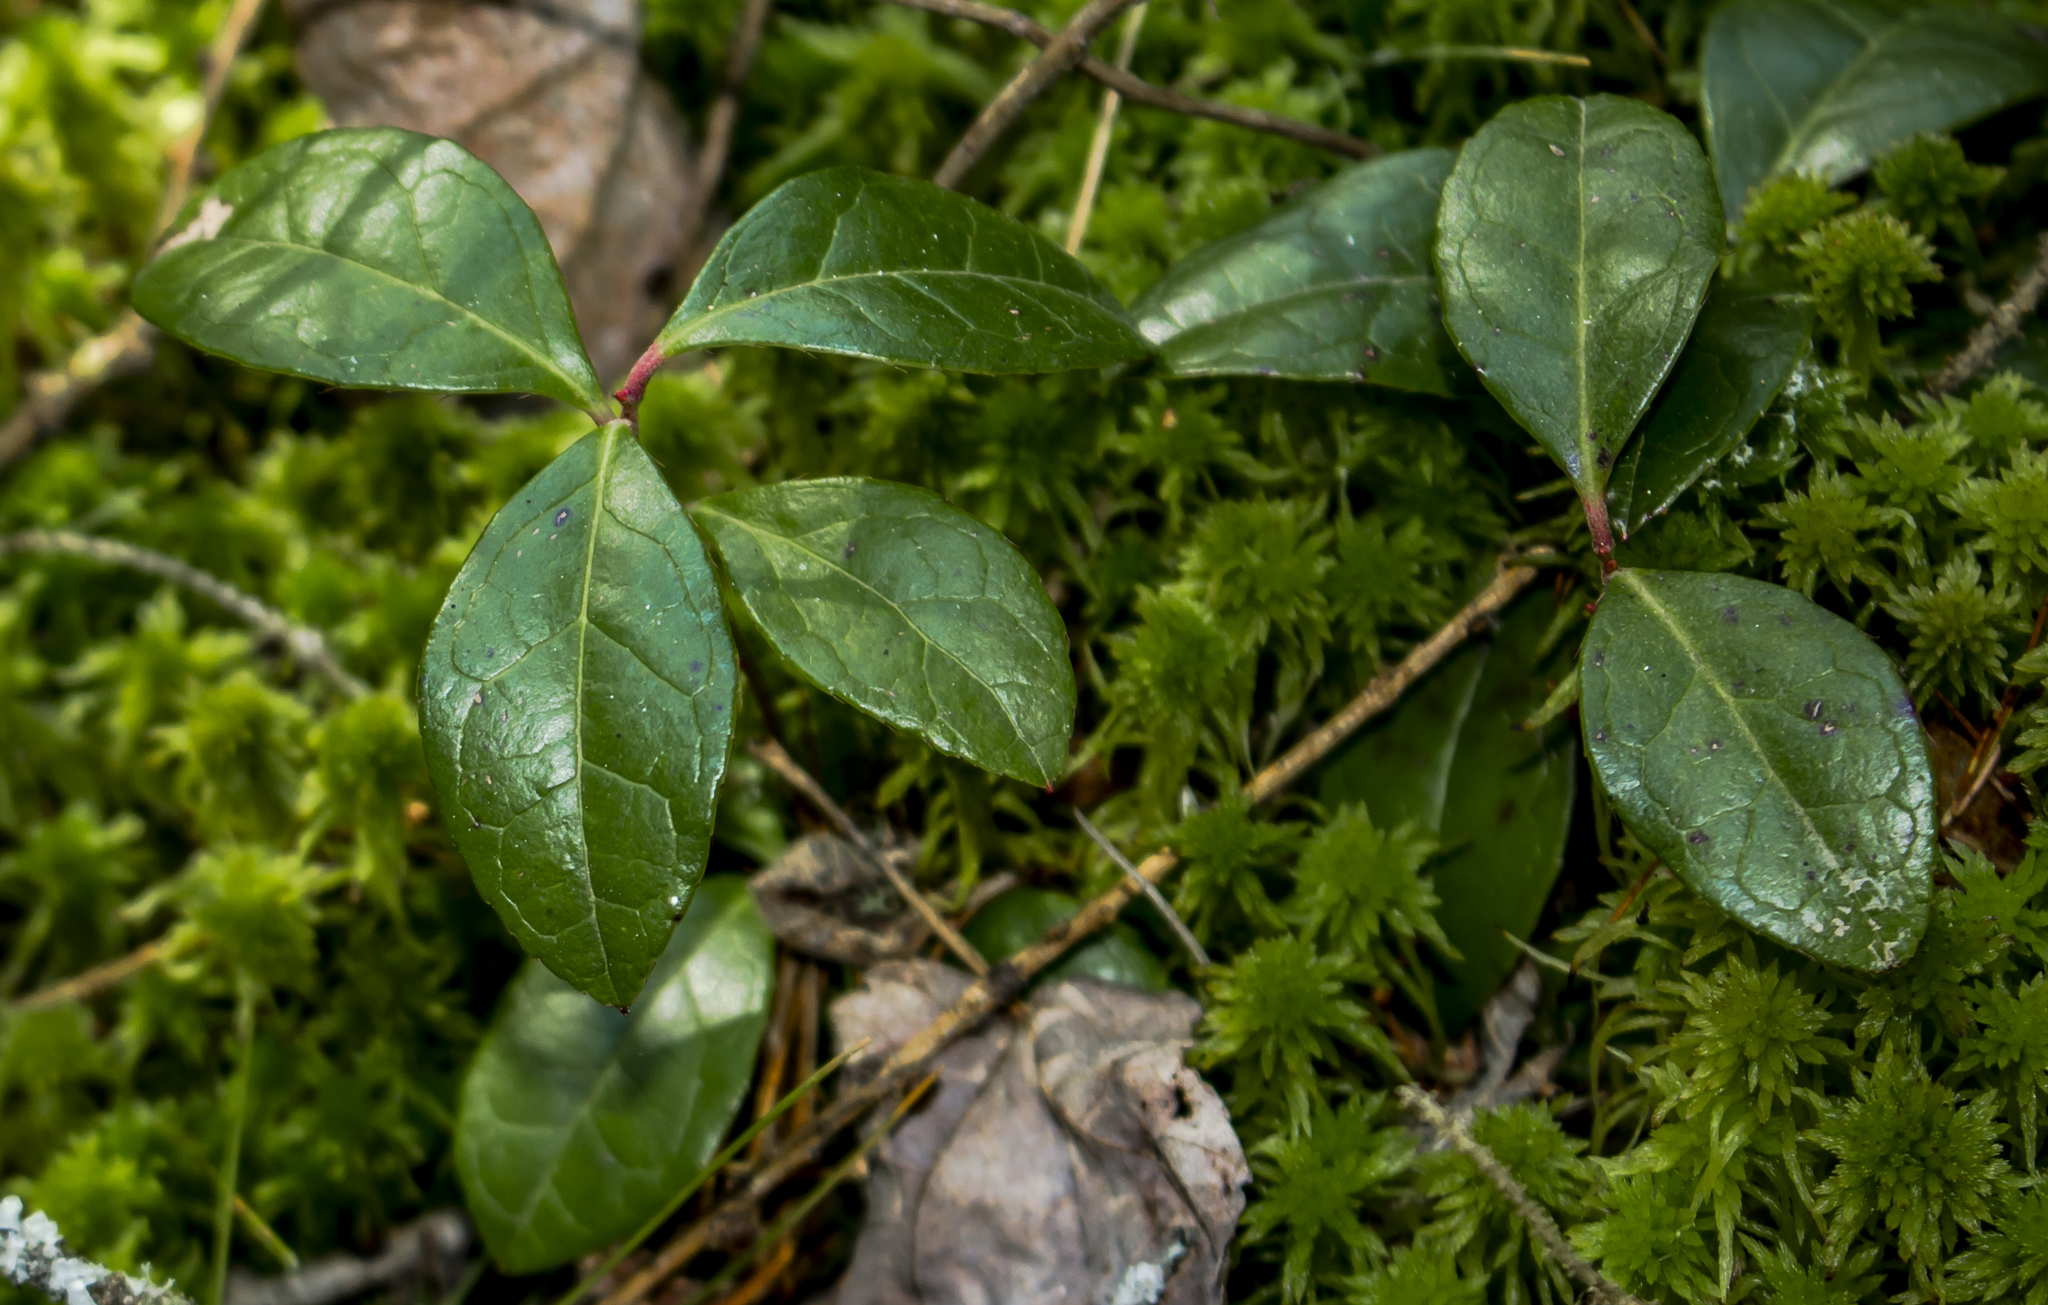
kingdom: Plantae
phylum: Tracheophyta
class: Magnoliopsida
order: Ericales
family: Ericaceae
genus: Gaultheria
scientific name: Gaultheria procumbens
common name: Checkerberry
